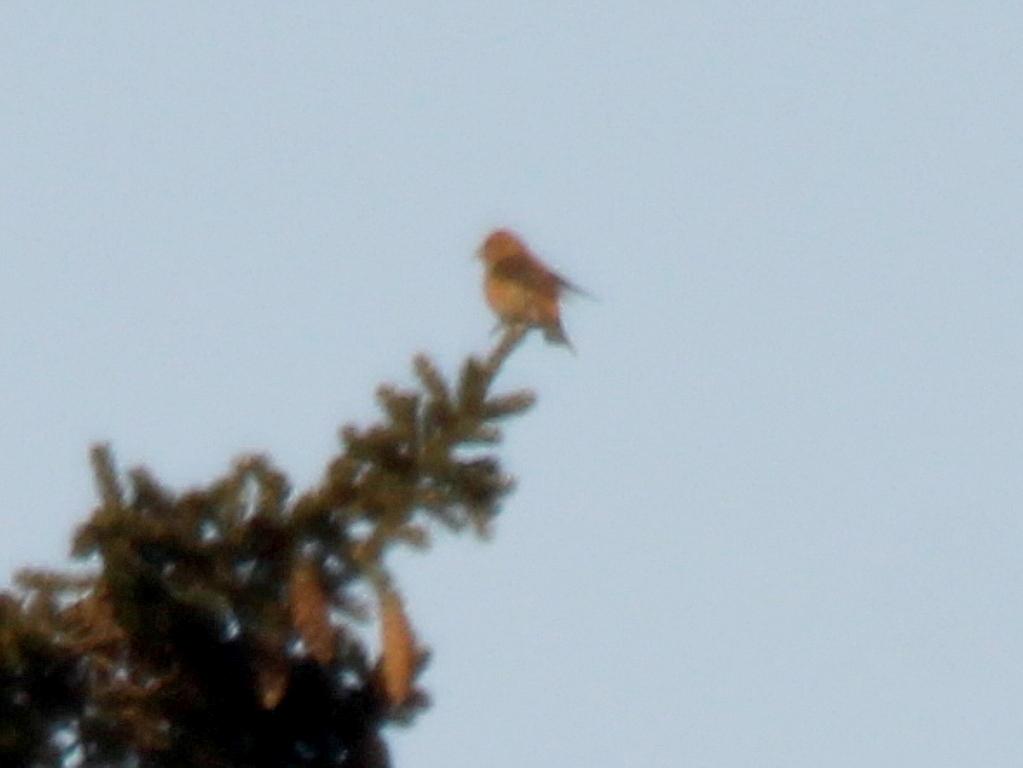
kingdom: Animalia
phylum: Chordata
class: Aves
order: Passeriformes
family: Fringillidae
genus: Loxia
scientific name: Loxia curvirostra
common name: Red crossbill
